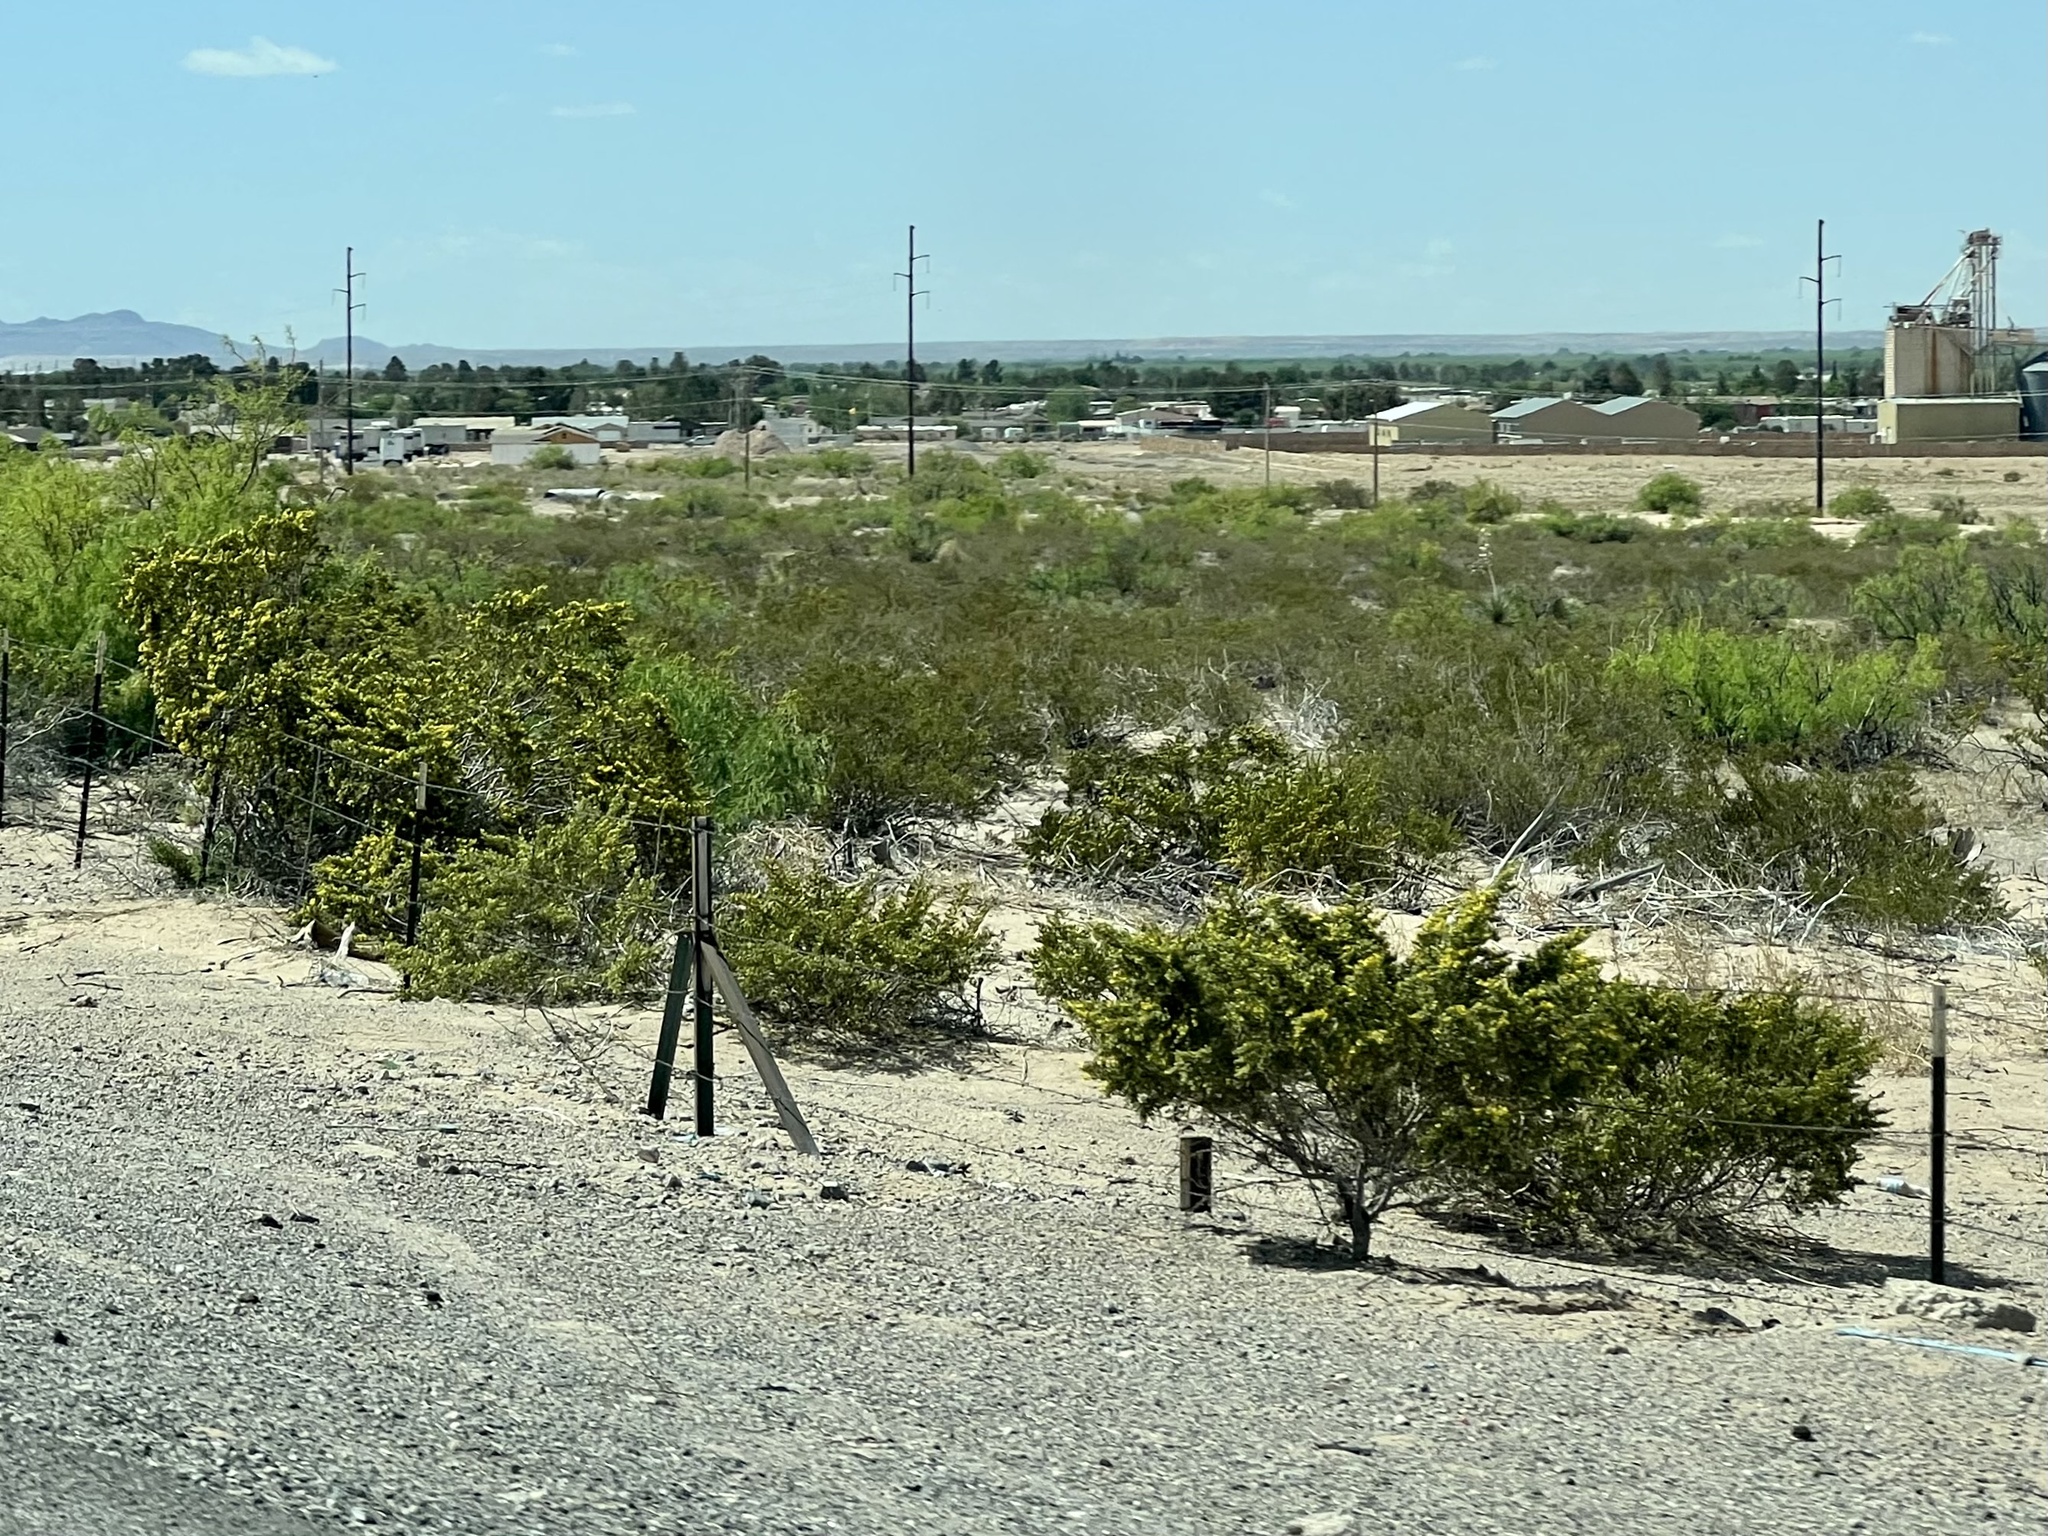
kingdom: Plantae
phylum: Tracheophyta
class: Magnoliopsida
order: Zygophyllales
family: Zygophyllaceae
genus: Larrea
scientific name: Larrea tridentata
